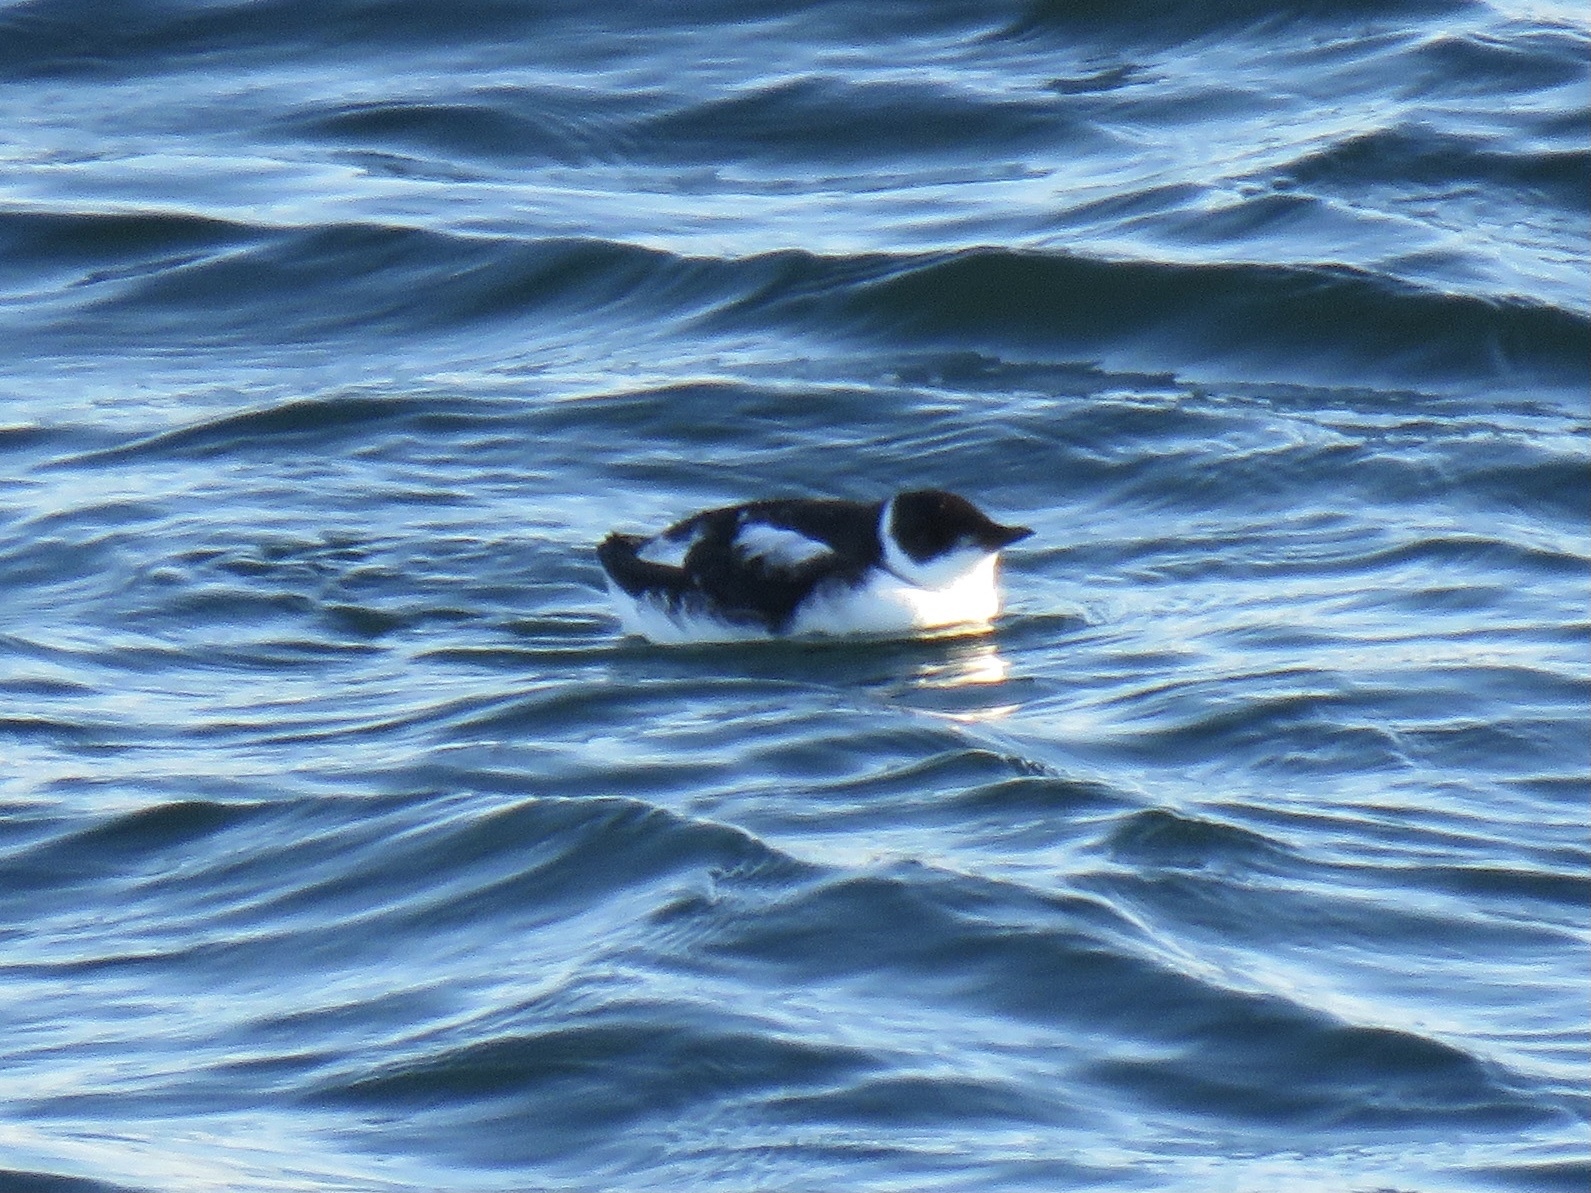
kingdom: Animalia
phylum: Chordata
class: Aves
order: Charadriiformes
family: Alcidae
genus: Brachyramphus
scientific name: Brachyramphus marmoratus
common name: Marbled murrelet
